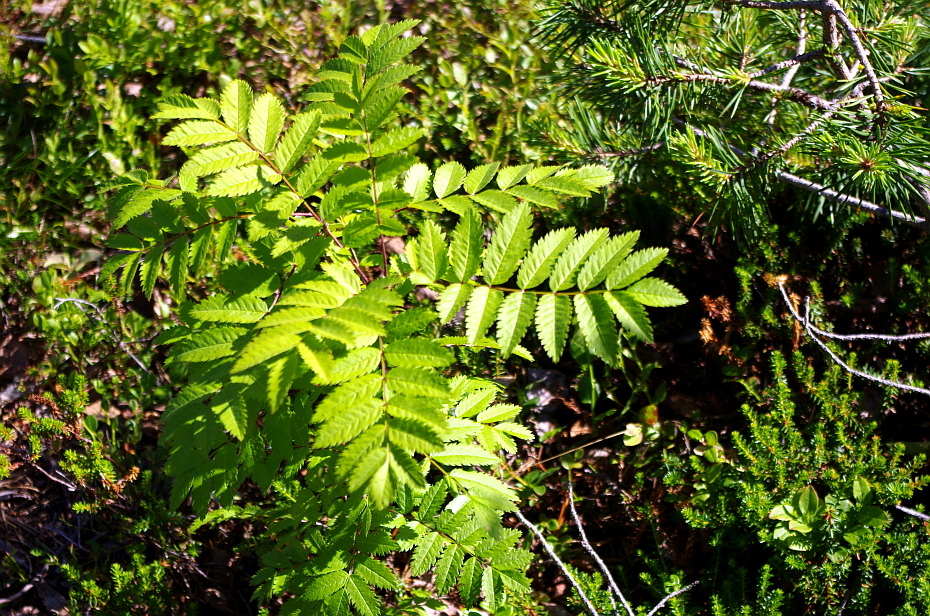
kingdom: Plantae
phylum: Tracheophyta
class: Magnoliopsida
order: Rosales
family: Rosaceae
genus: Sorbus
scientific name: Sorbus aucuparia
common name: Rowan
